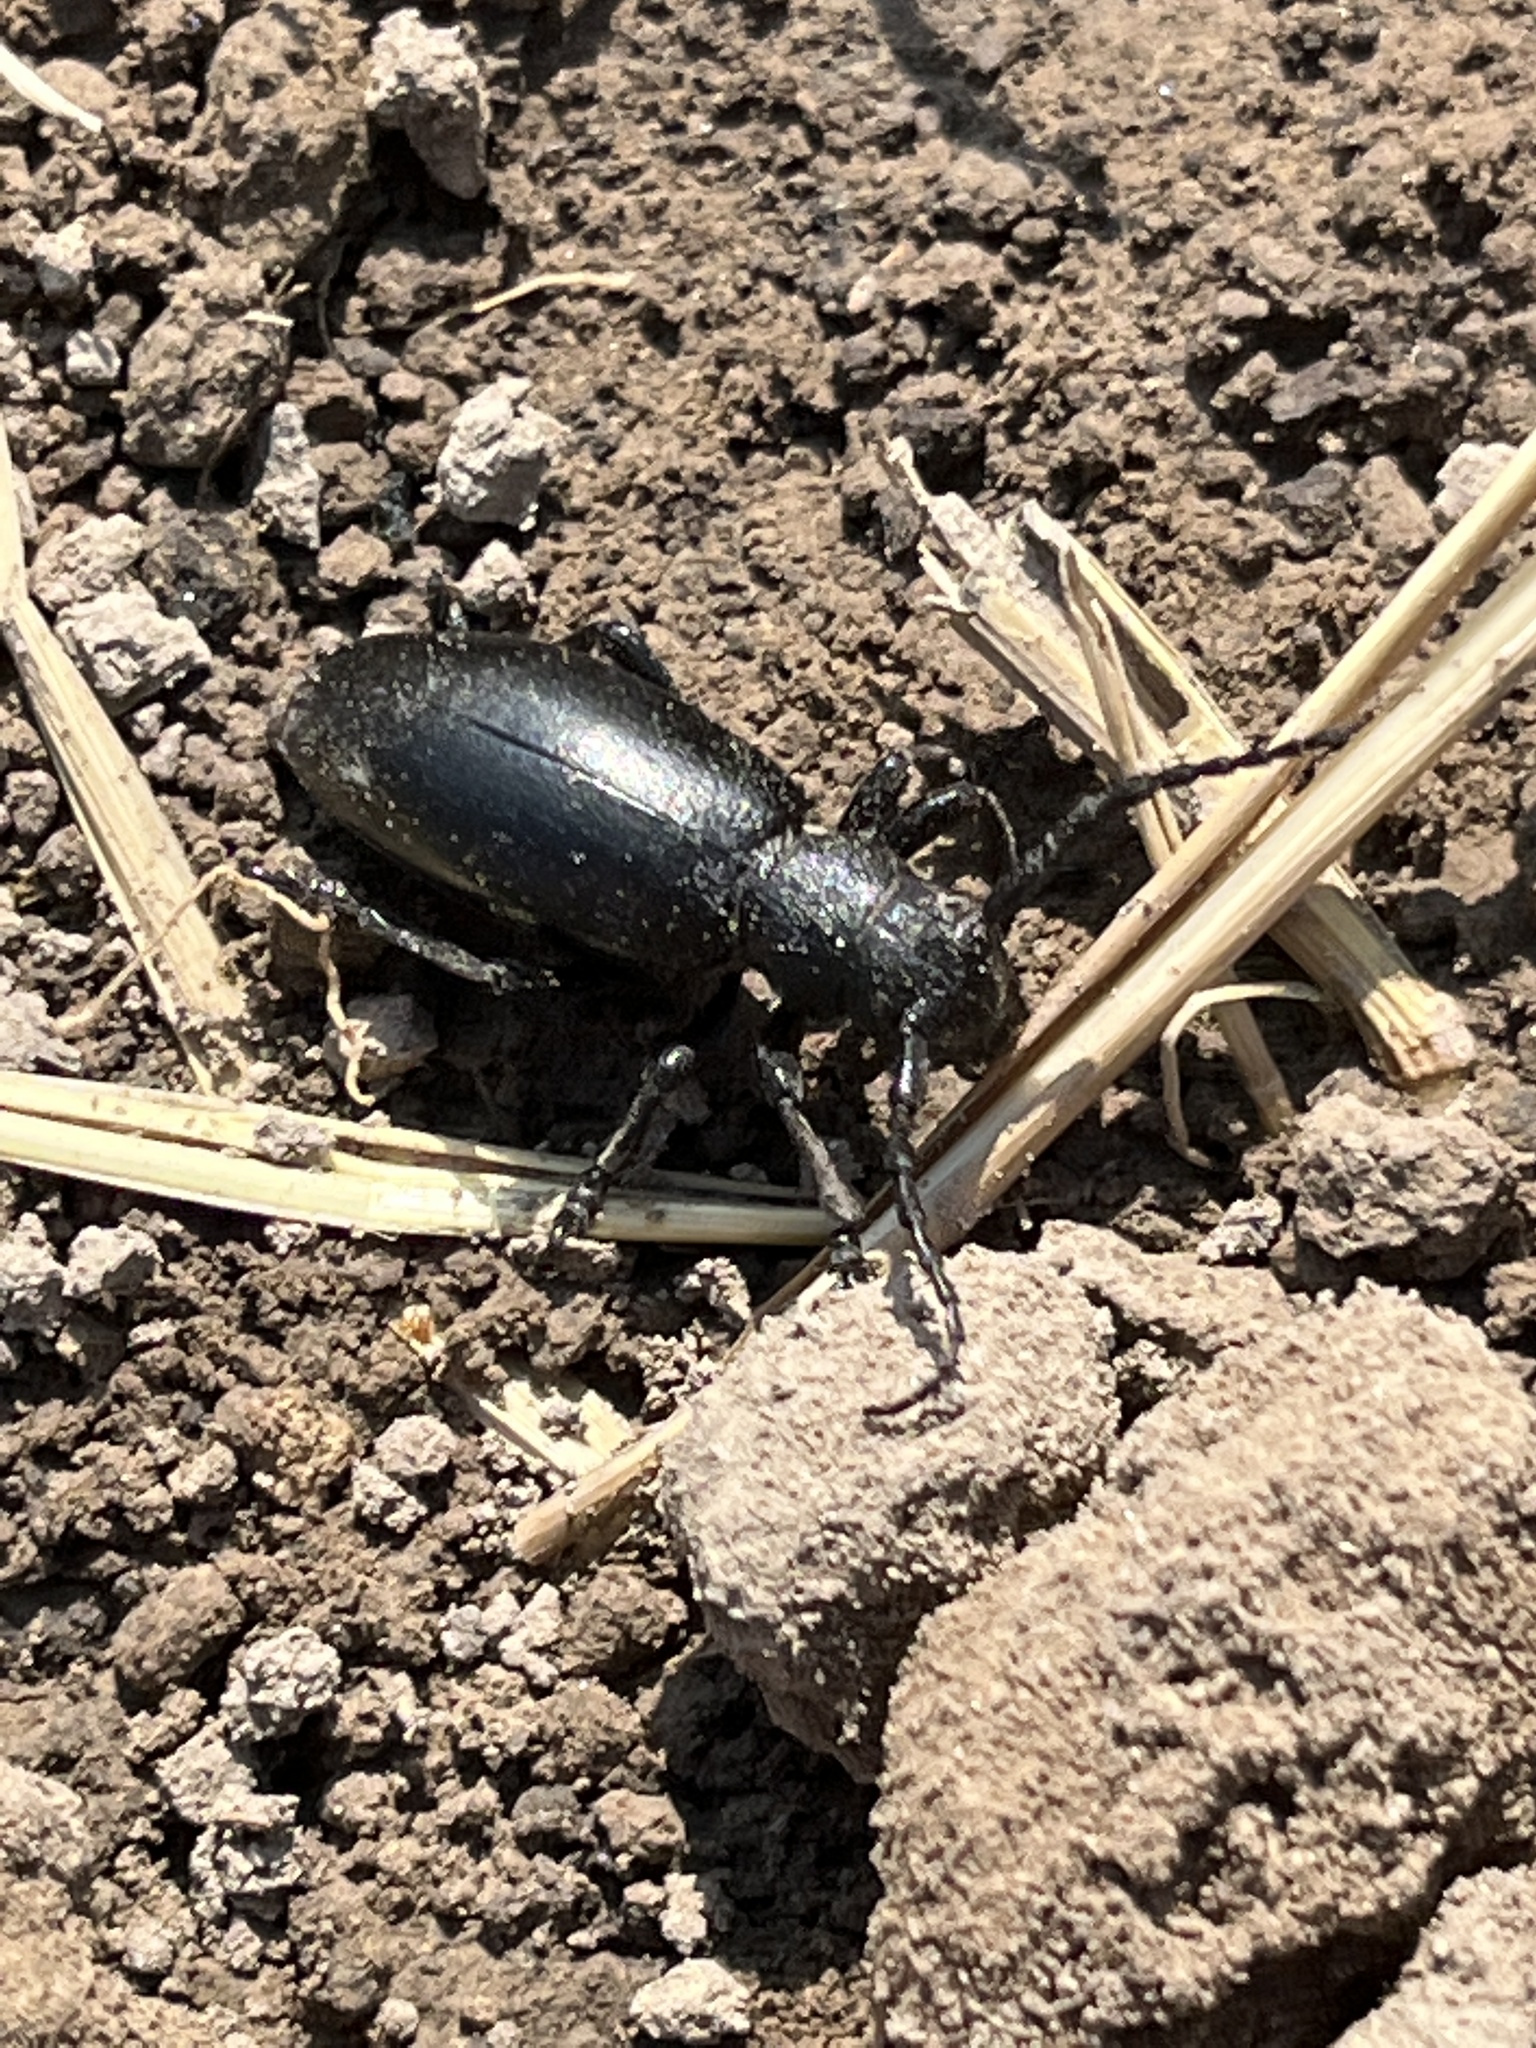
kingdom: Animalia
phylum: Arthropoda
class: Insecta
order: Coleoptera
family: Cerambycidae
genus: Dorcadion
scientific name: Dorcadion aethiops
